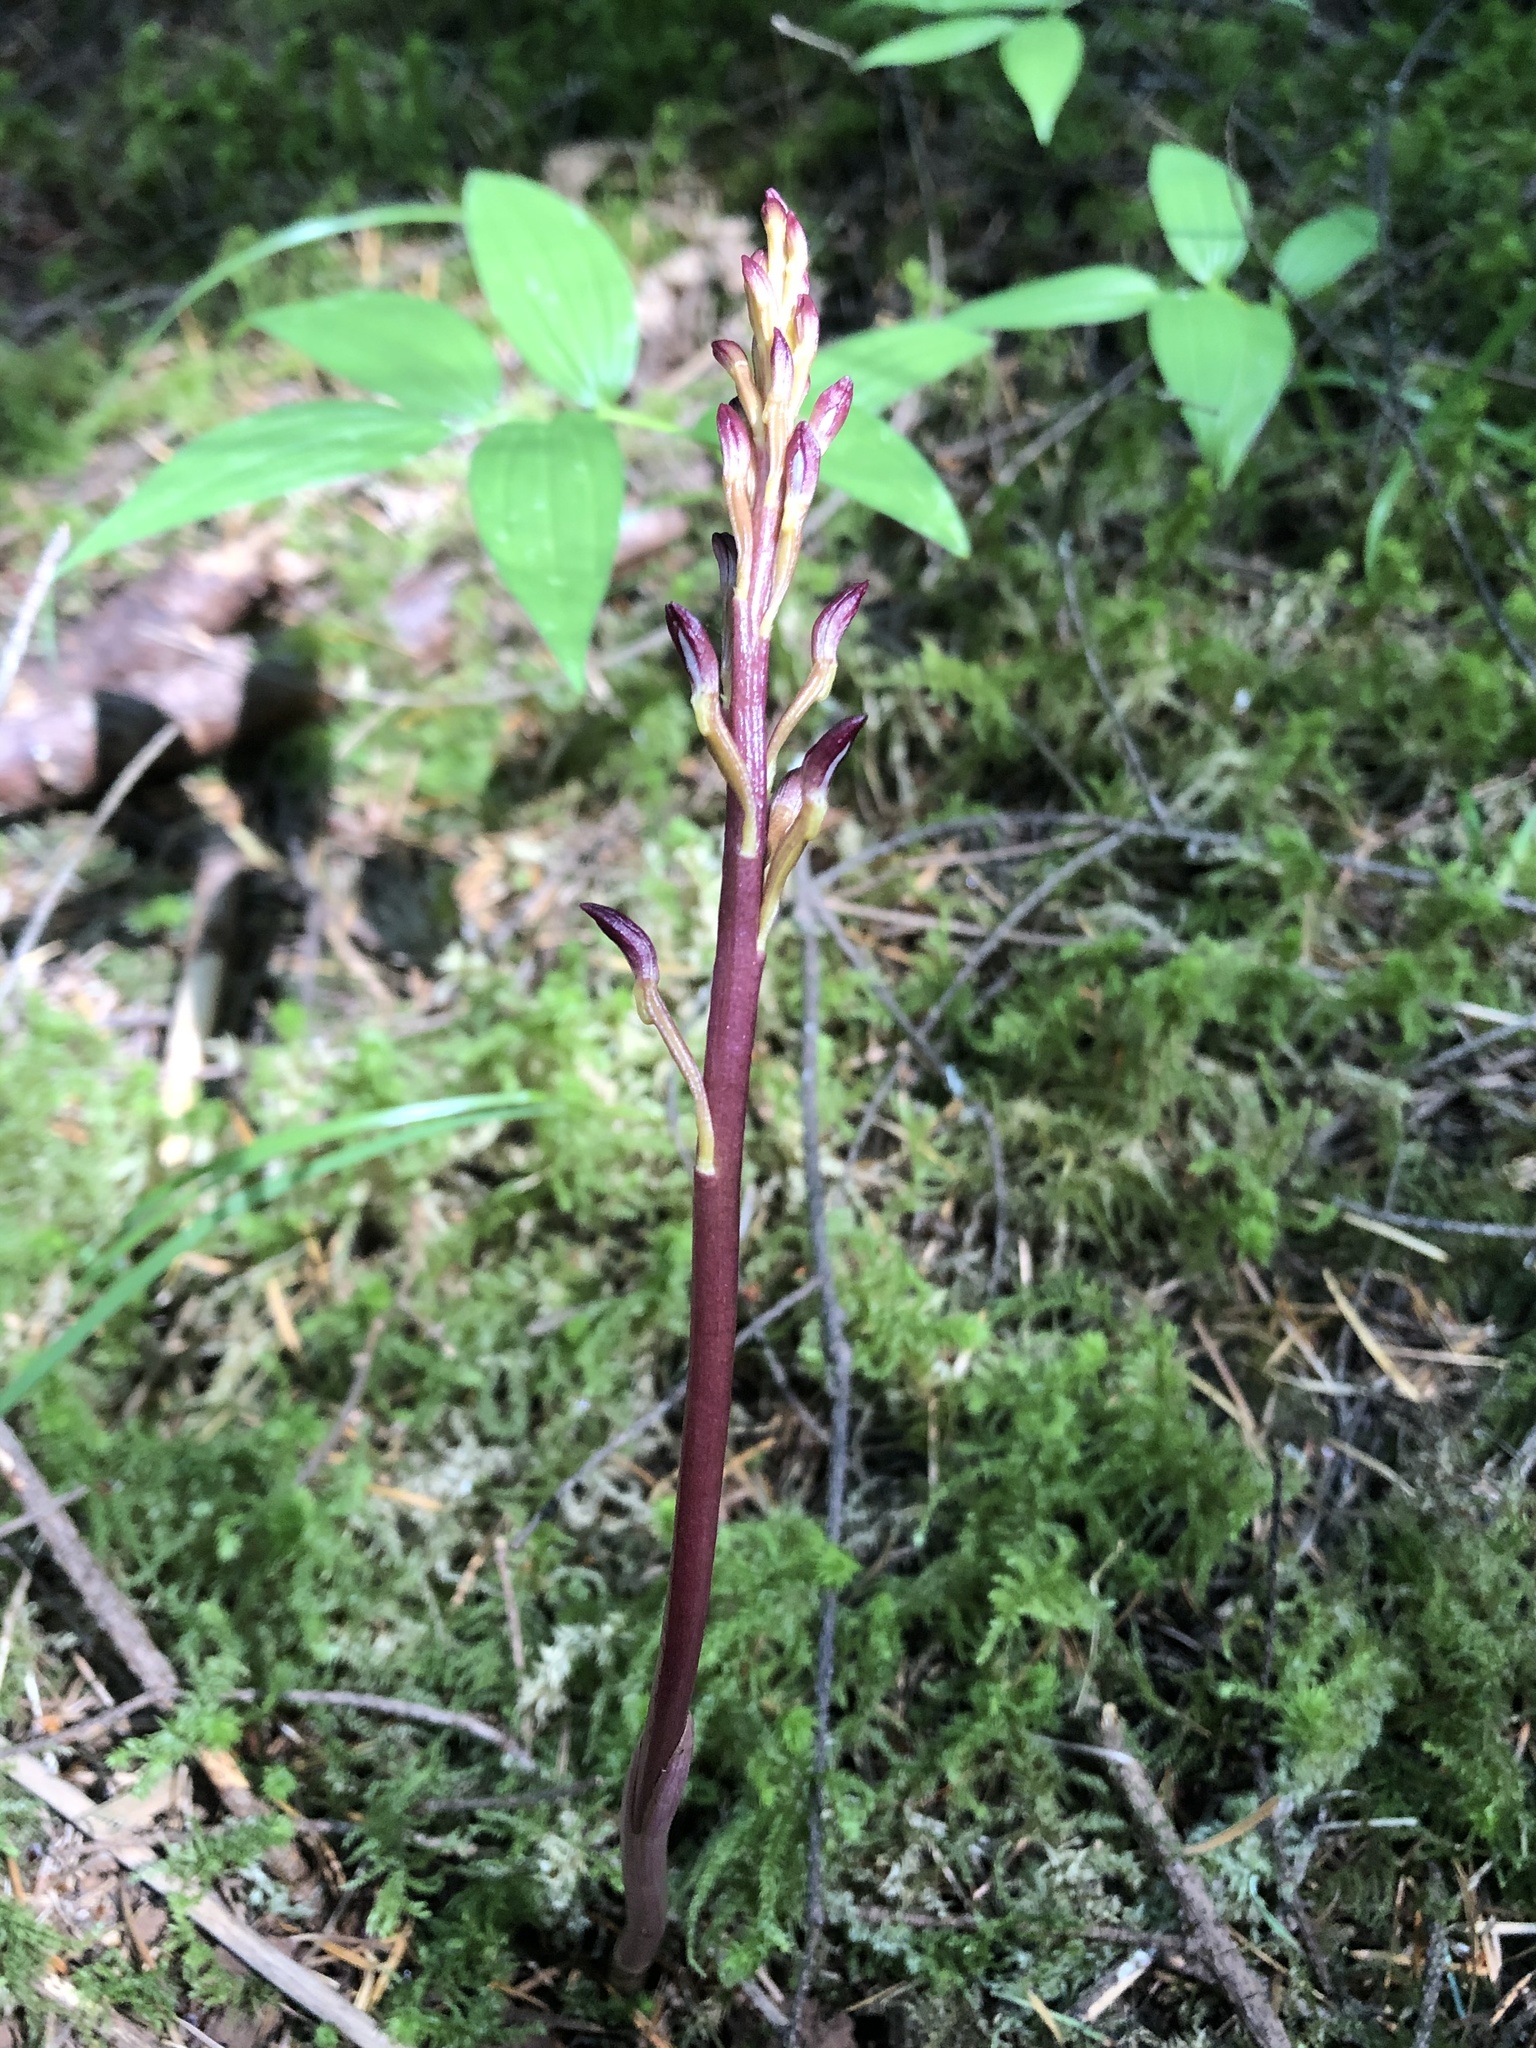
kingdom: Plantae
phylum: Tracheophyta
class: Liliopsida
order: Asparagales
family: Orchidaceae
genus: Corallorhiza
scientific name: Corallorhiza maculata
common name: Spotted coralroot
